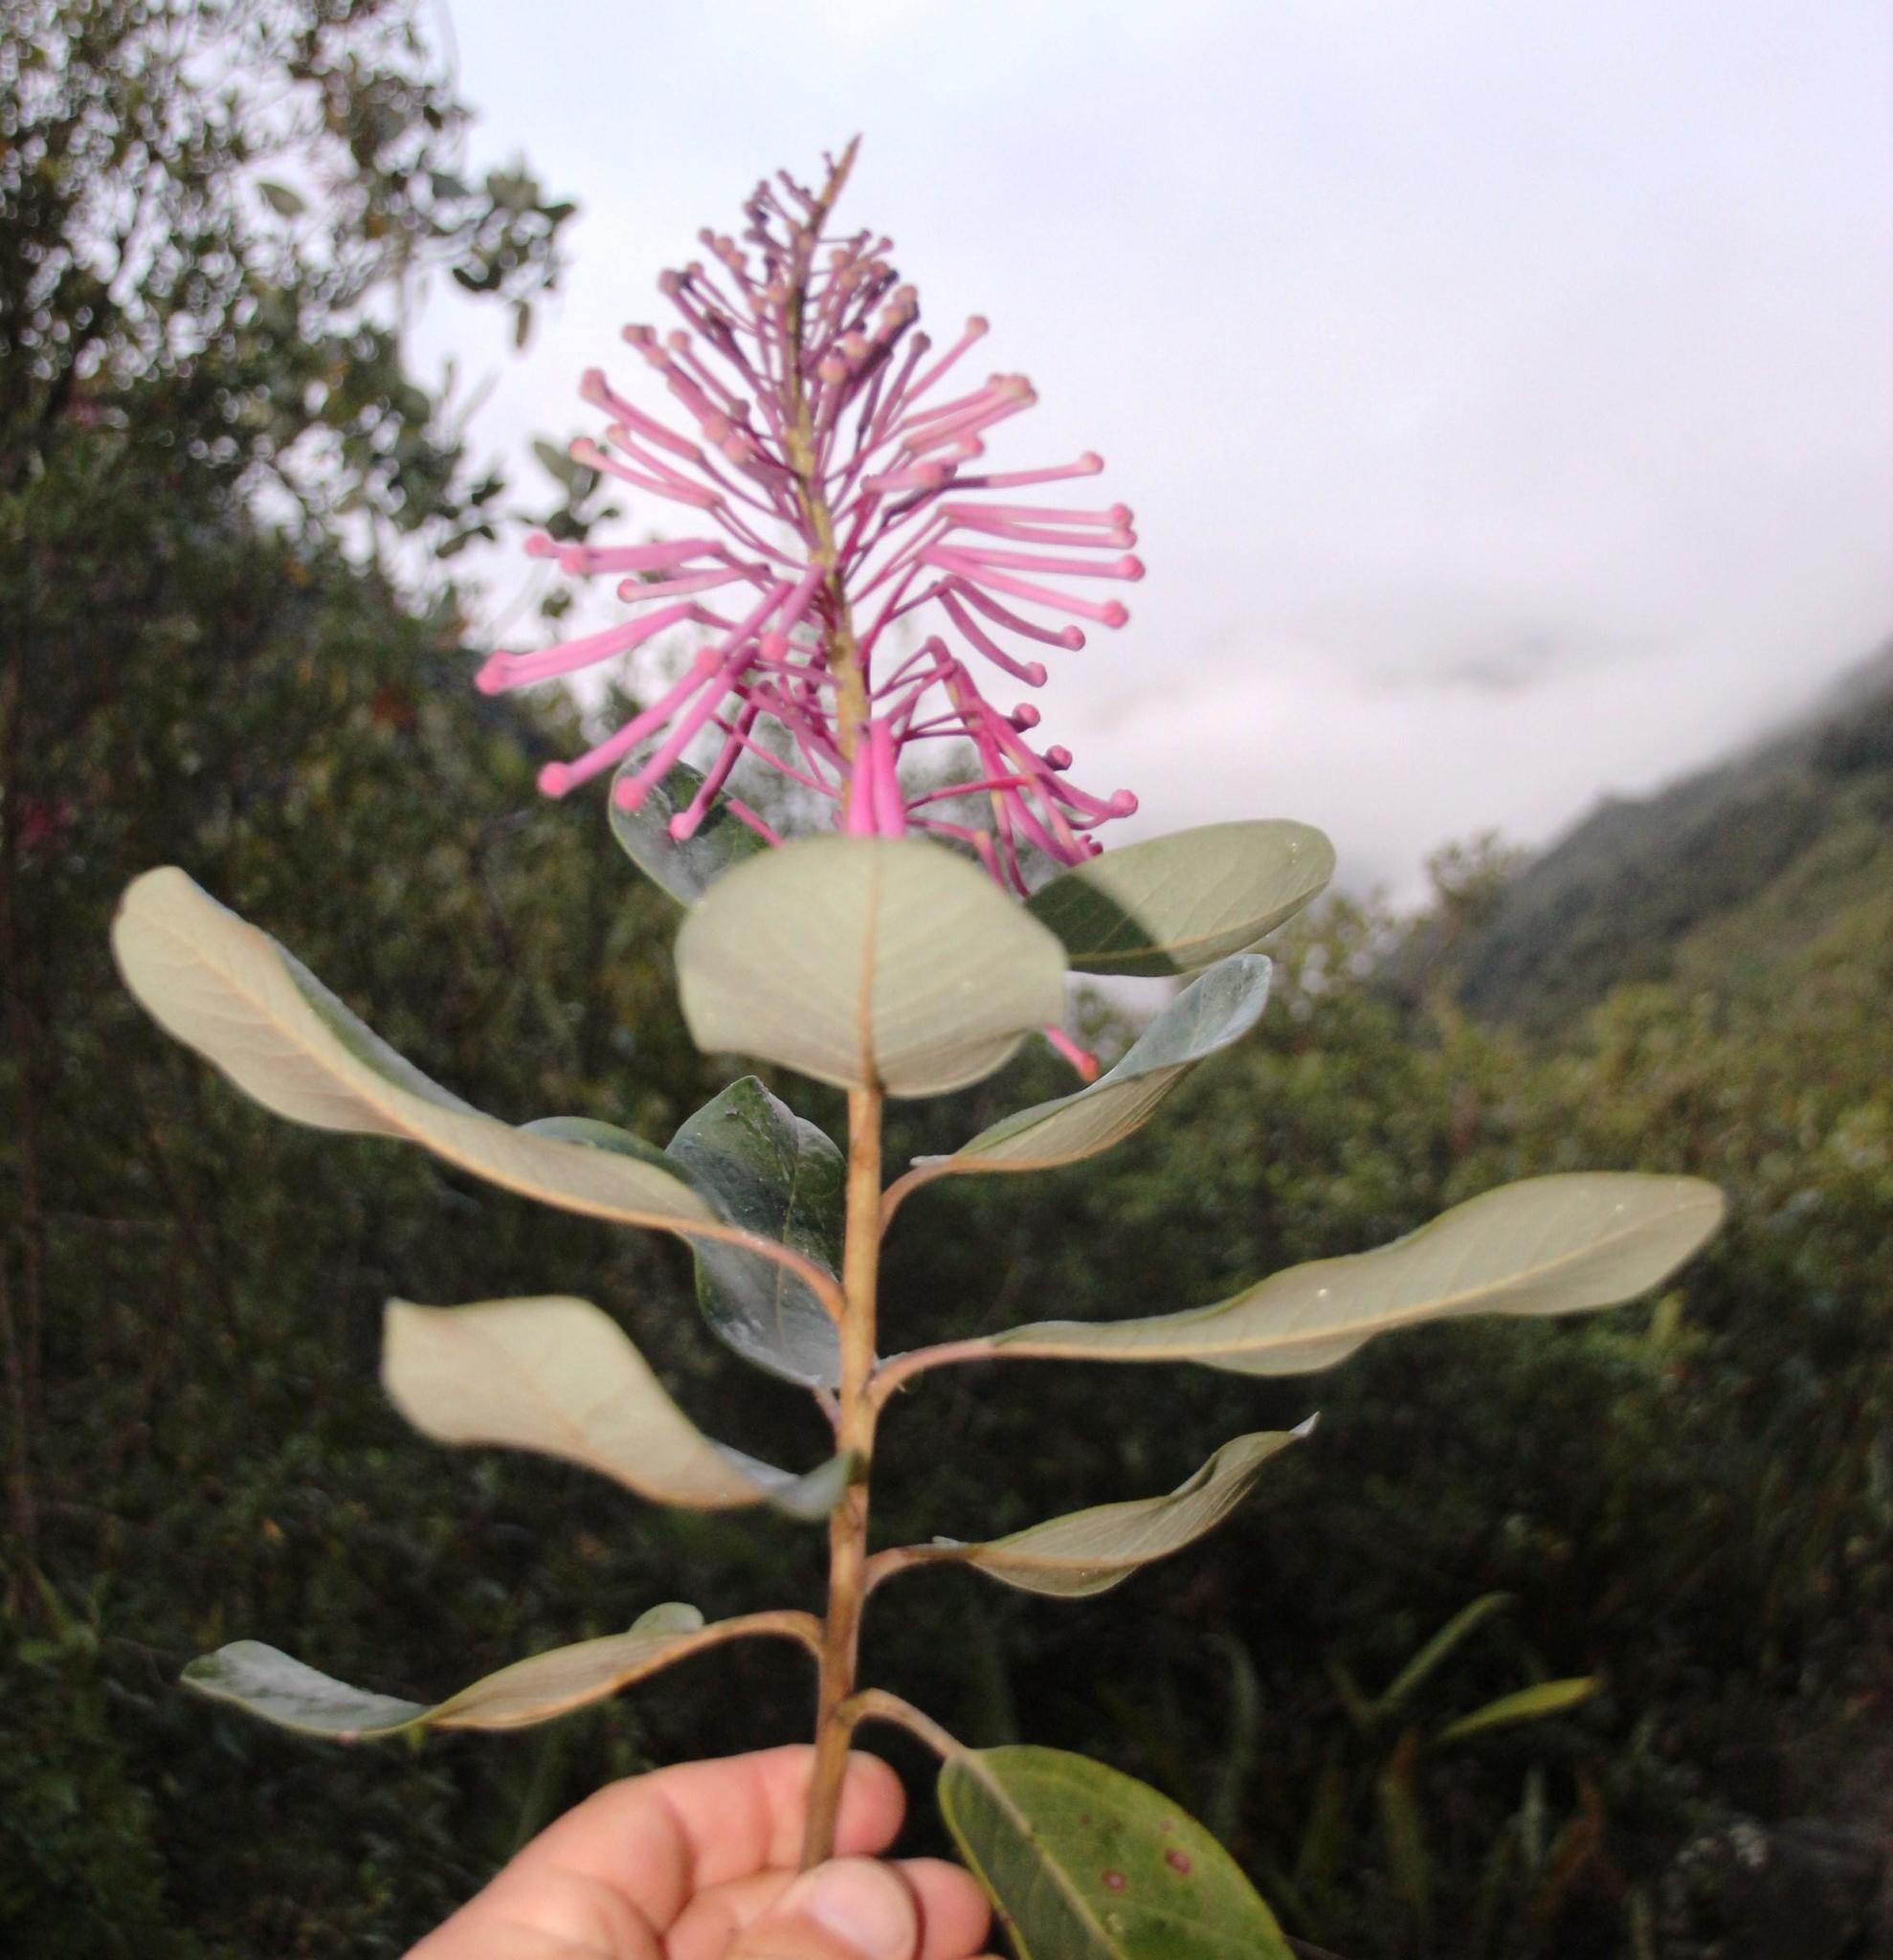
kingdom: Plantae
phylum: Tracheophyta
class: Magnoliopsida
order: Proteales
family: Proteaceae
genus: Oreocallis
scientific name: Oreocallis grandiflora
